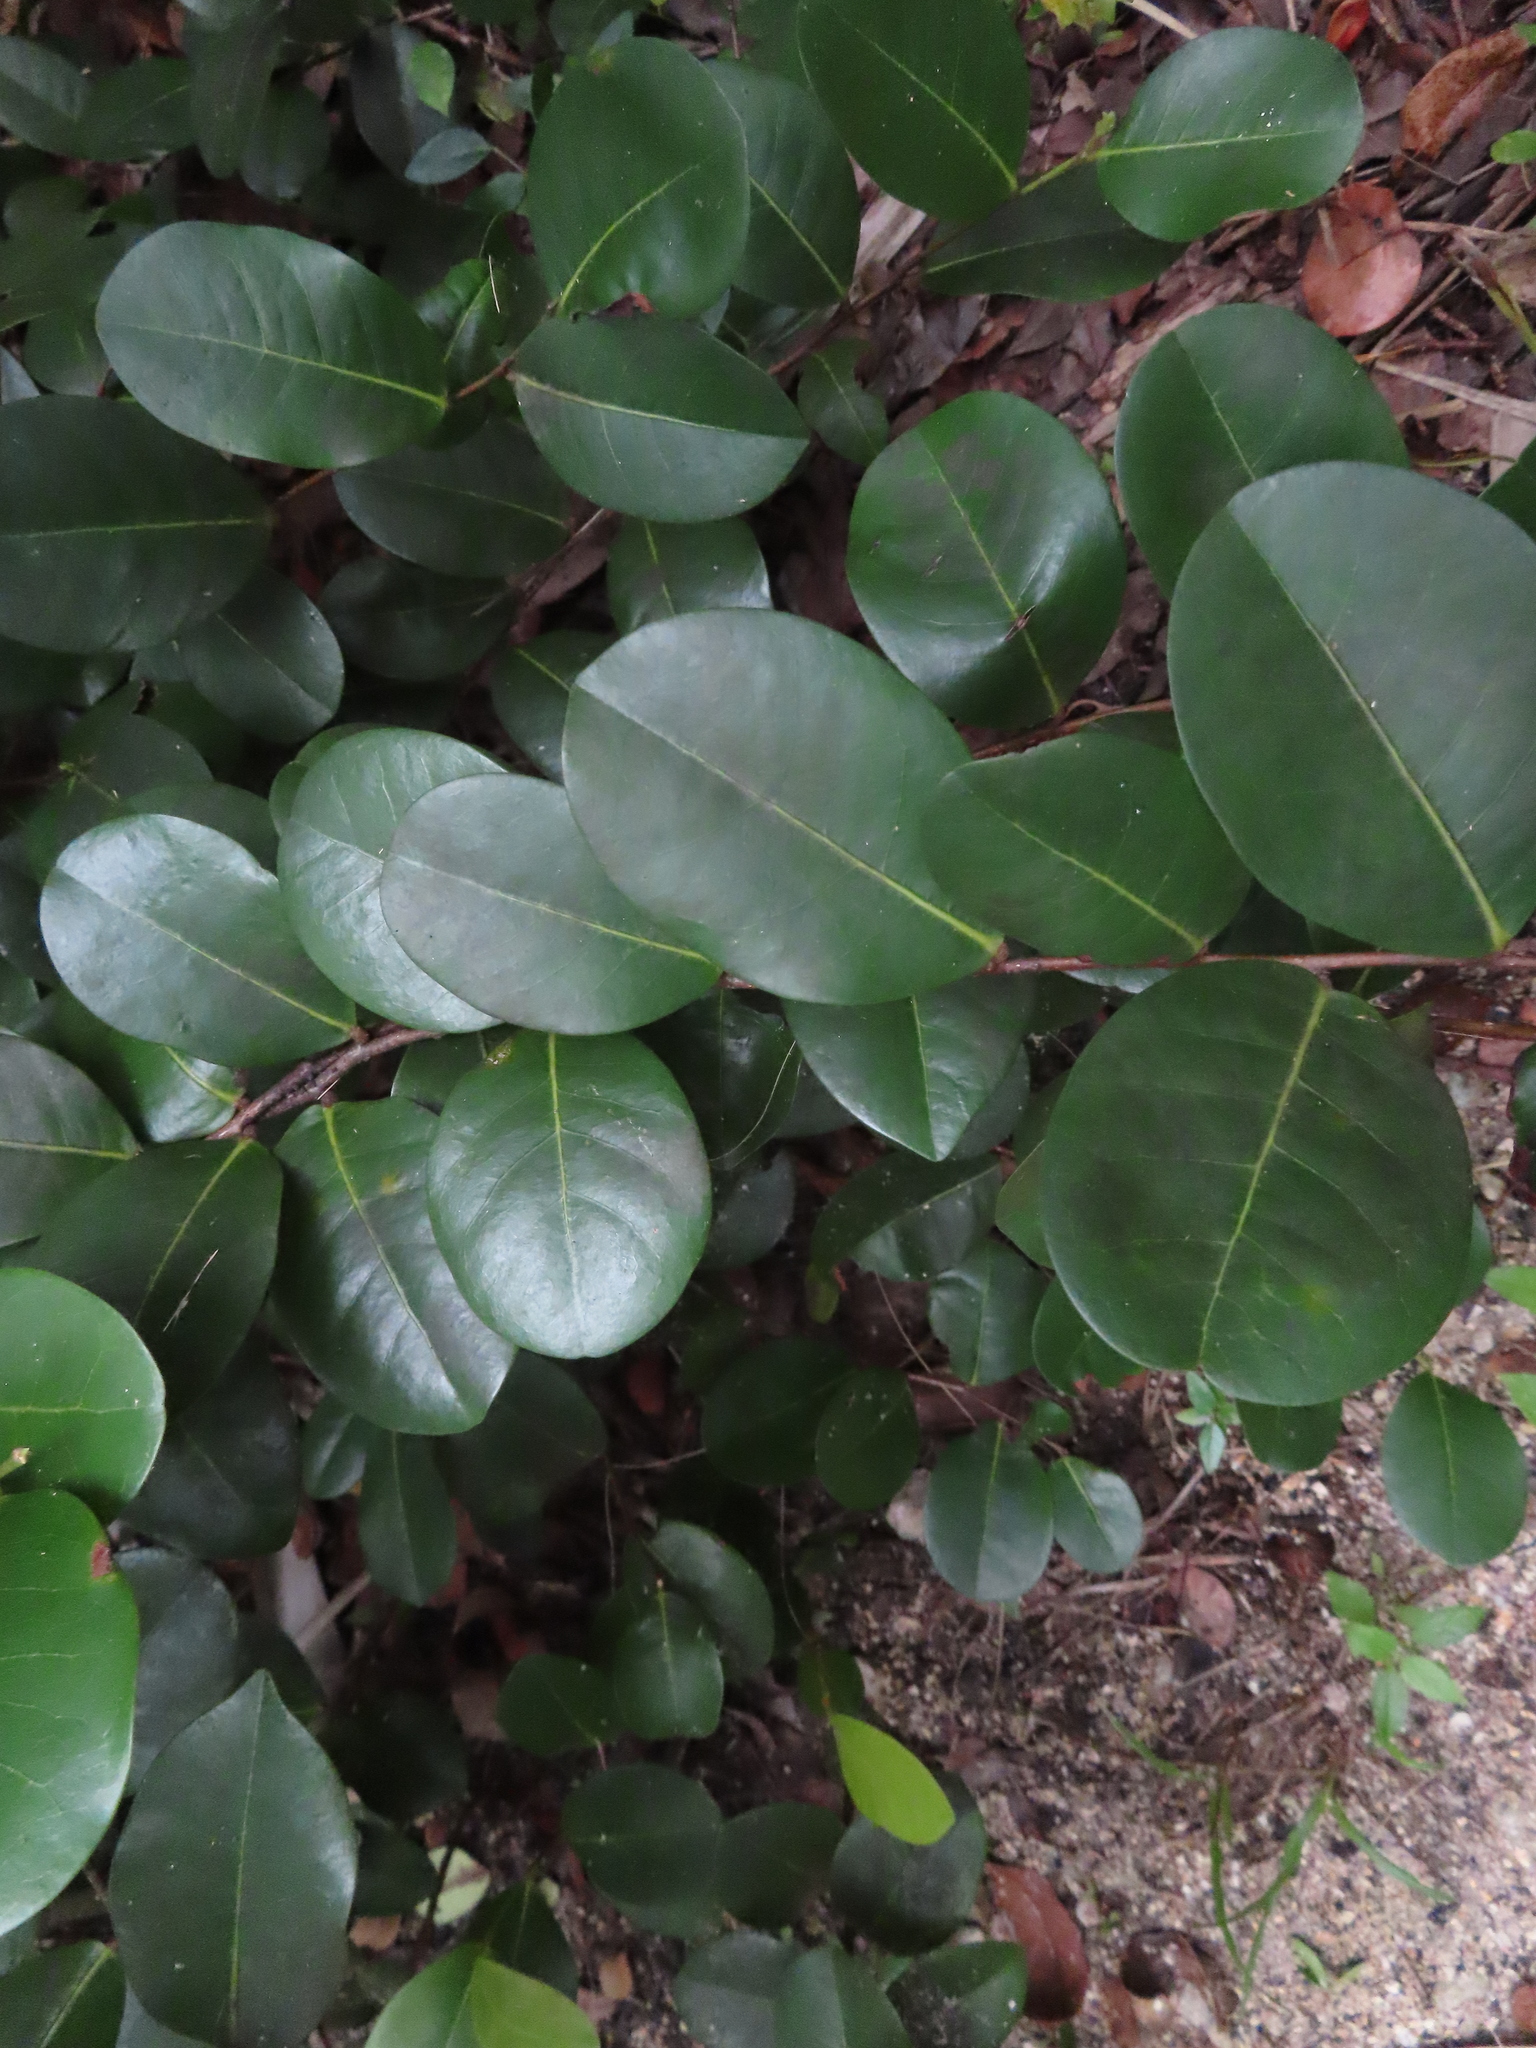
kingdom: Plantae
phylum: Tracheophyta
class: Magnoliopsida
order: Malpighiales
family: Chrysobalanaceae
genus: Chrysobalanus
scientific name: Chrysobalanus icaco
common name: Coco plum
